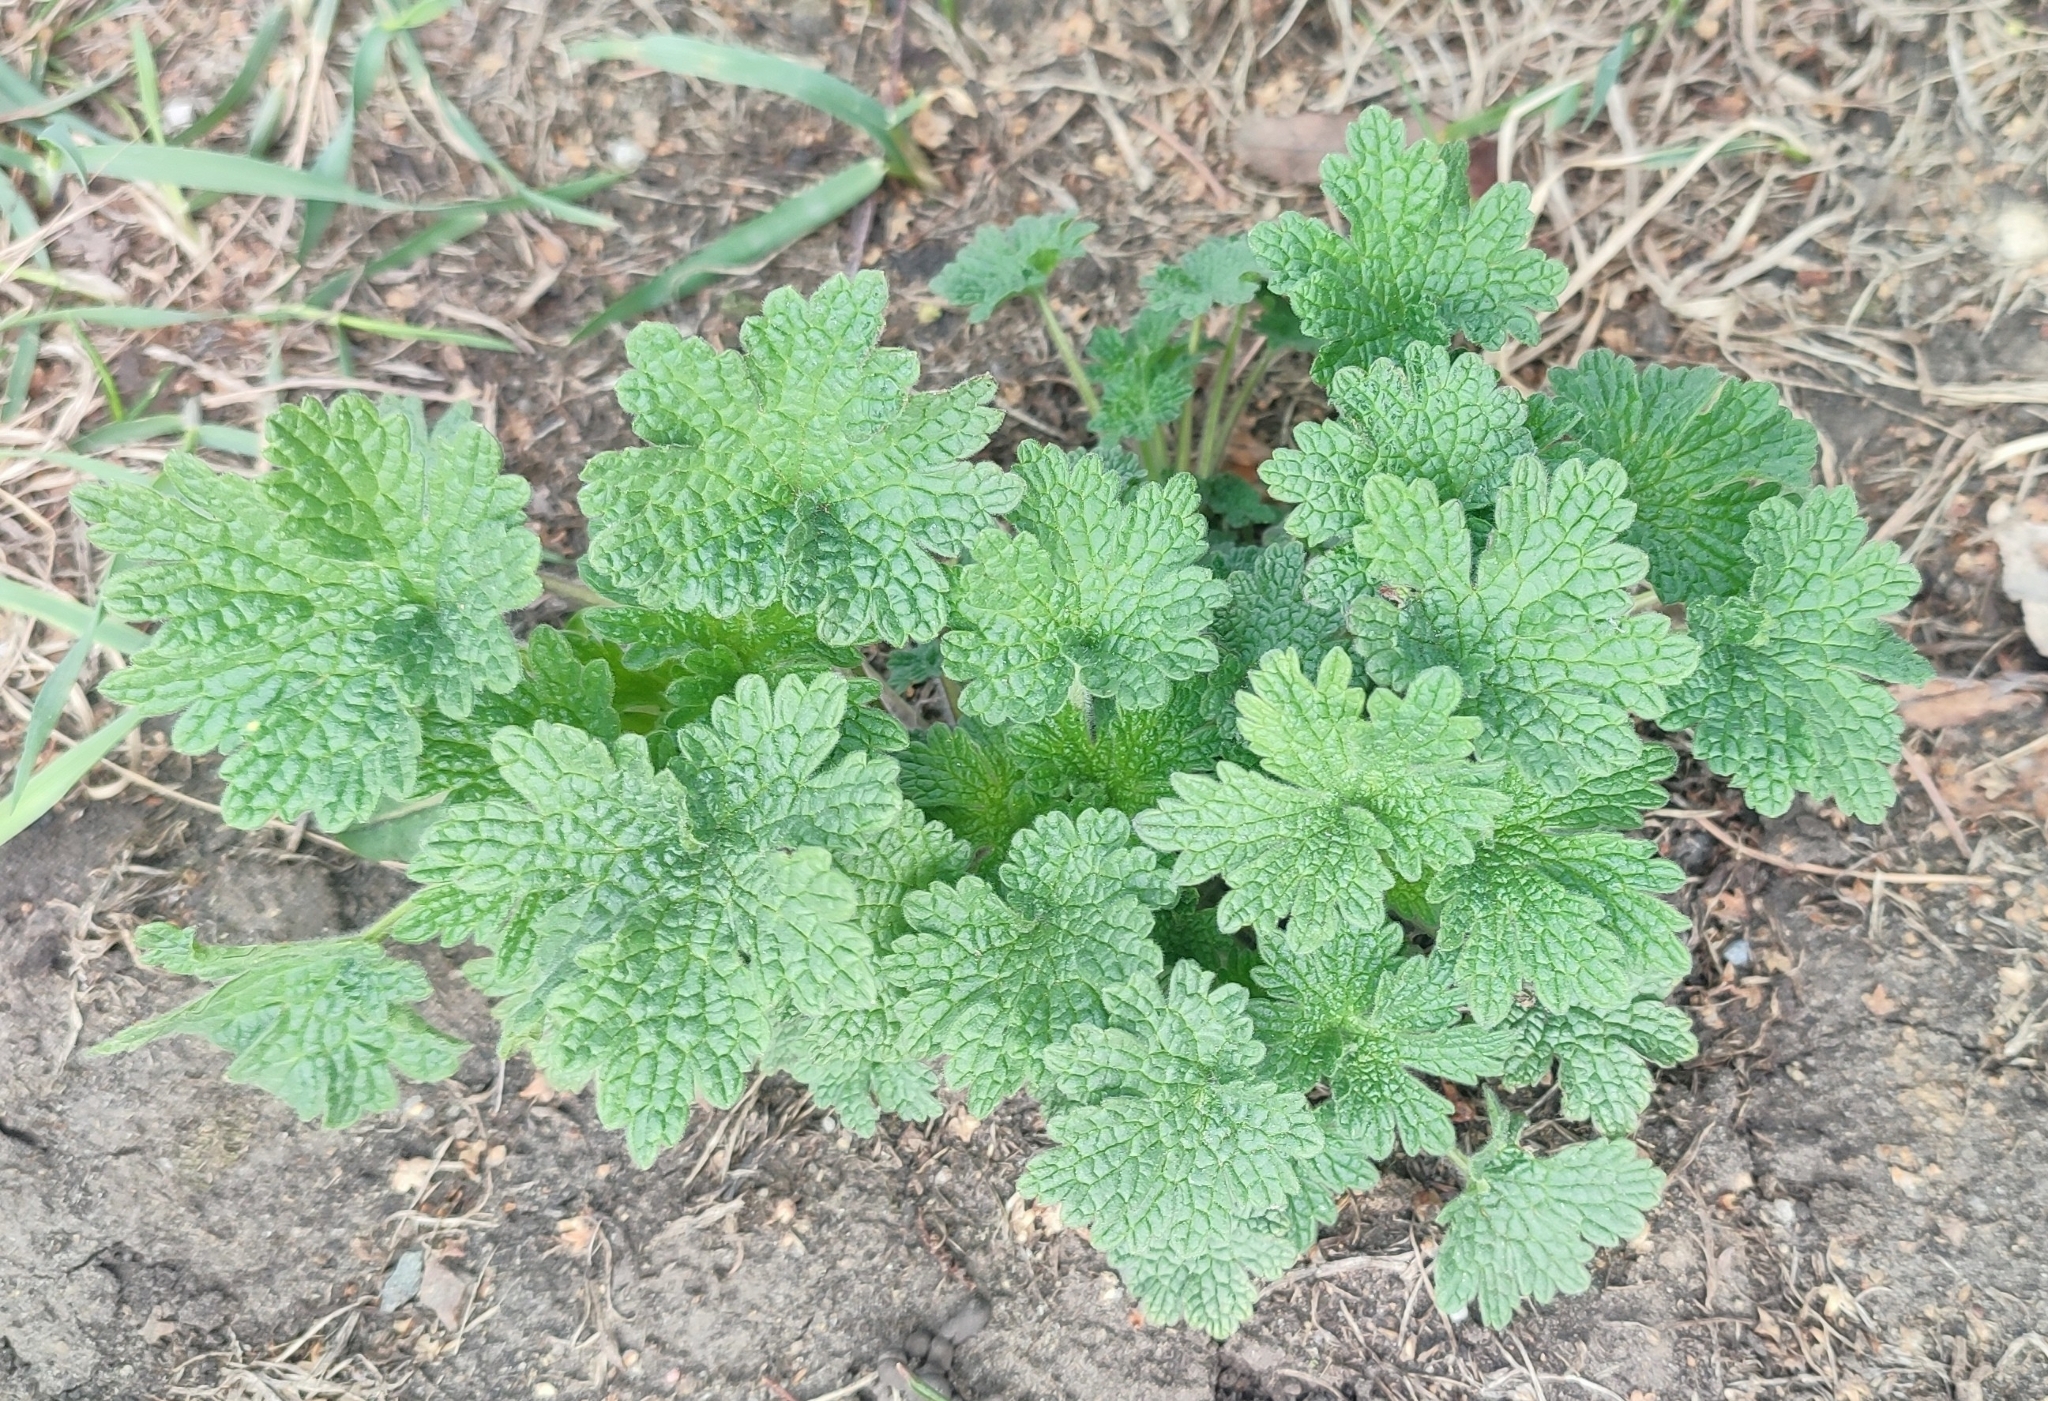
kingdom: Plantae
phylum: Tracheophyta
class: Magnoliopsida
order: Lamiales
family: Lamiaceae
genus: Leonurus
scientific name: Leonurus quinquelobatus
